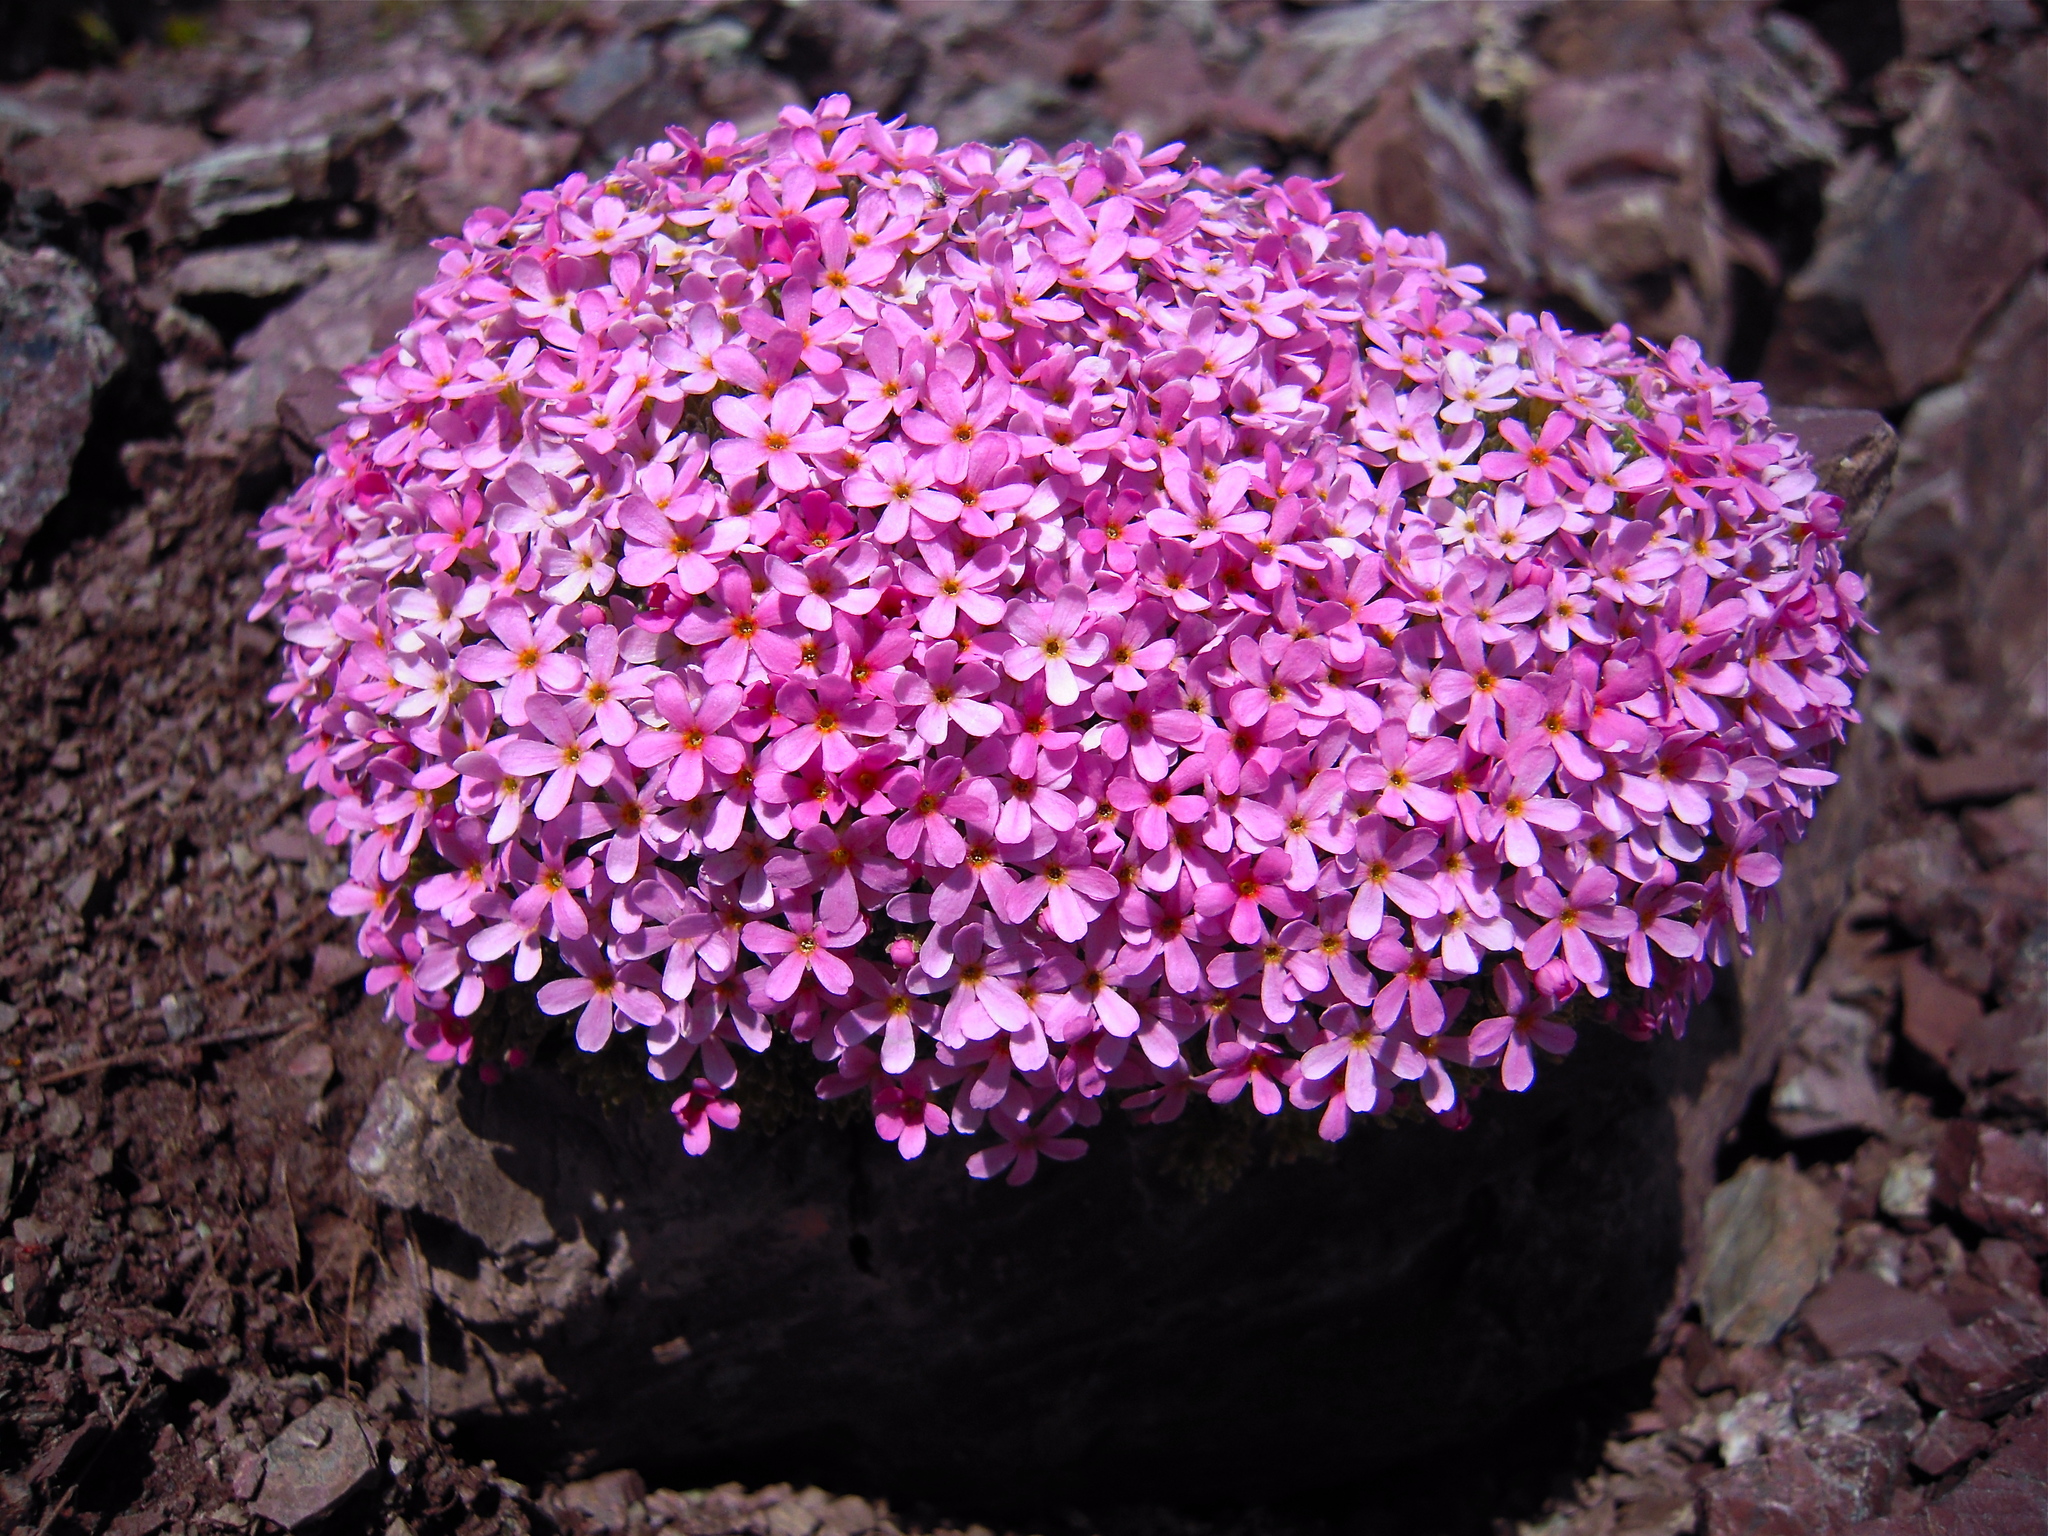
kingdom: Plantae
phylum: Tracheophyta
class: Magnoliopsida
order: Ericales
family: Primulaceae
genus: Androsace
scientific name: Androsace alpina
